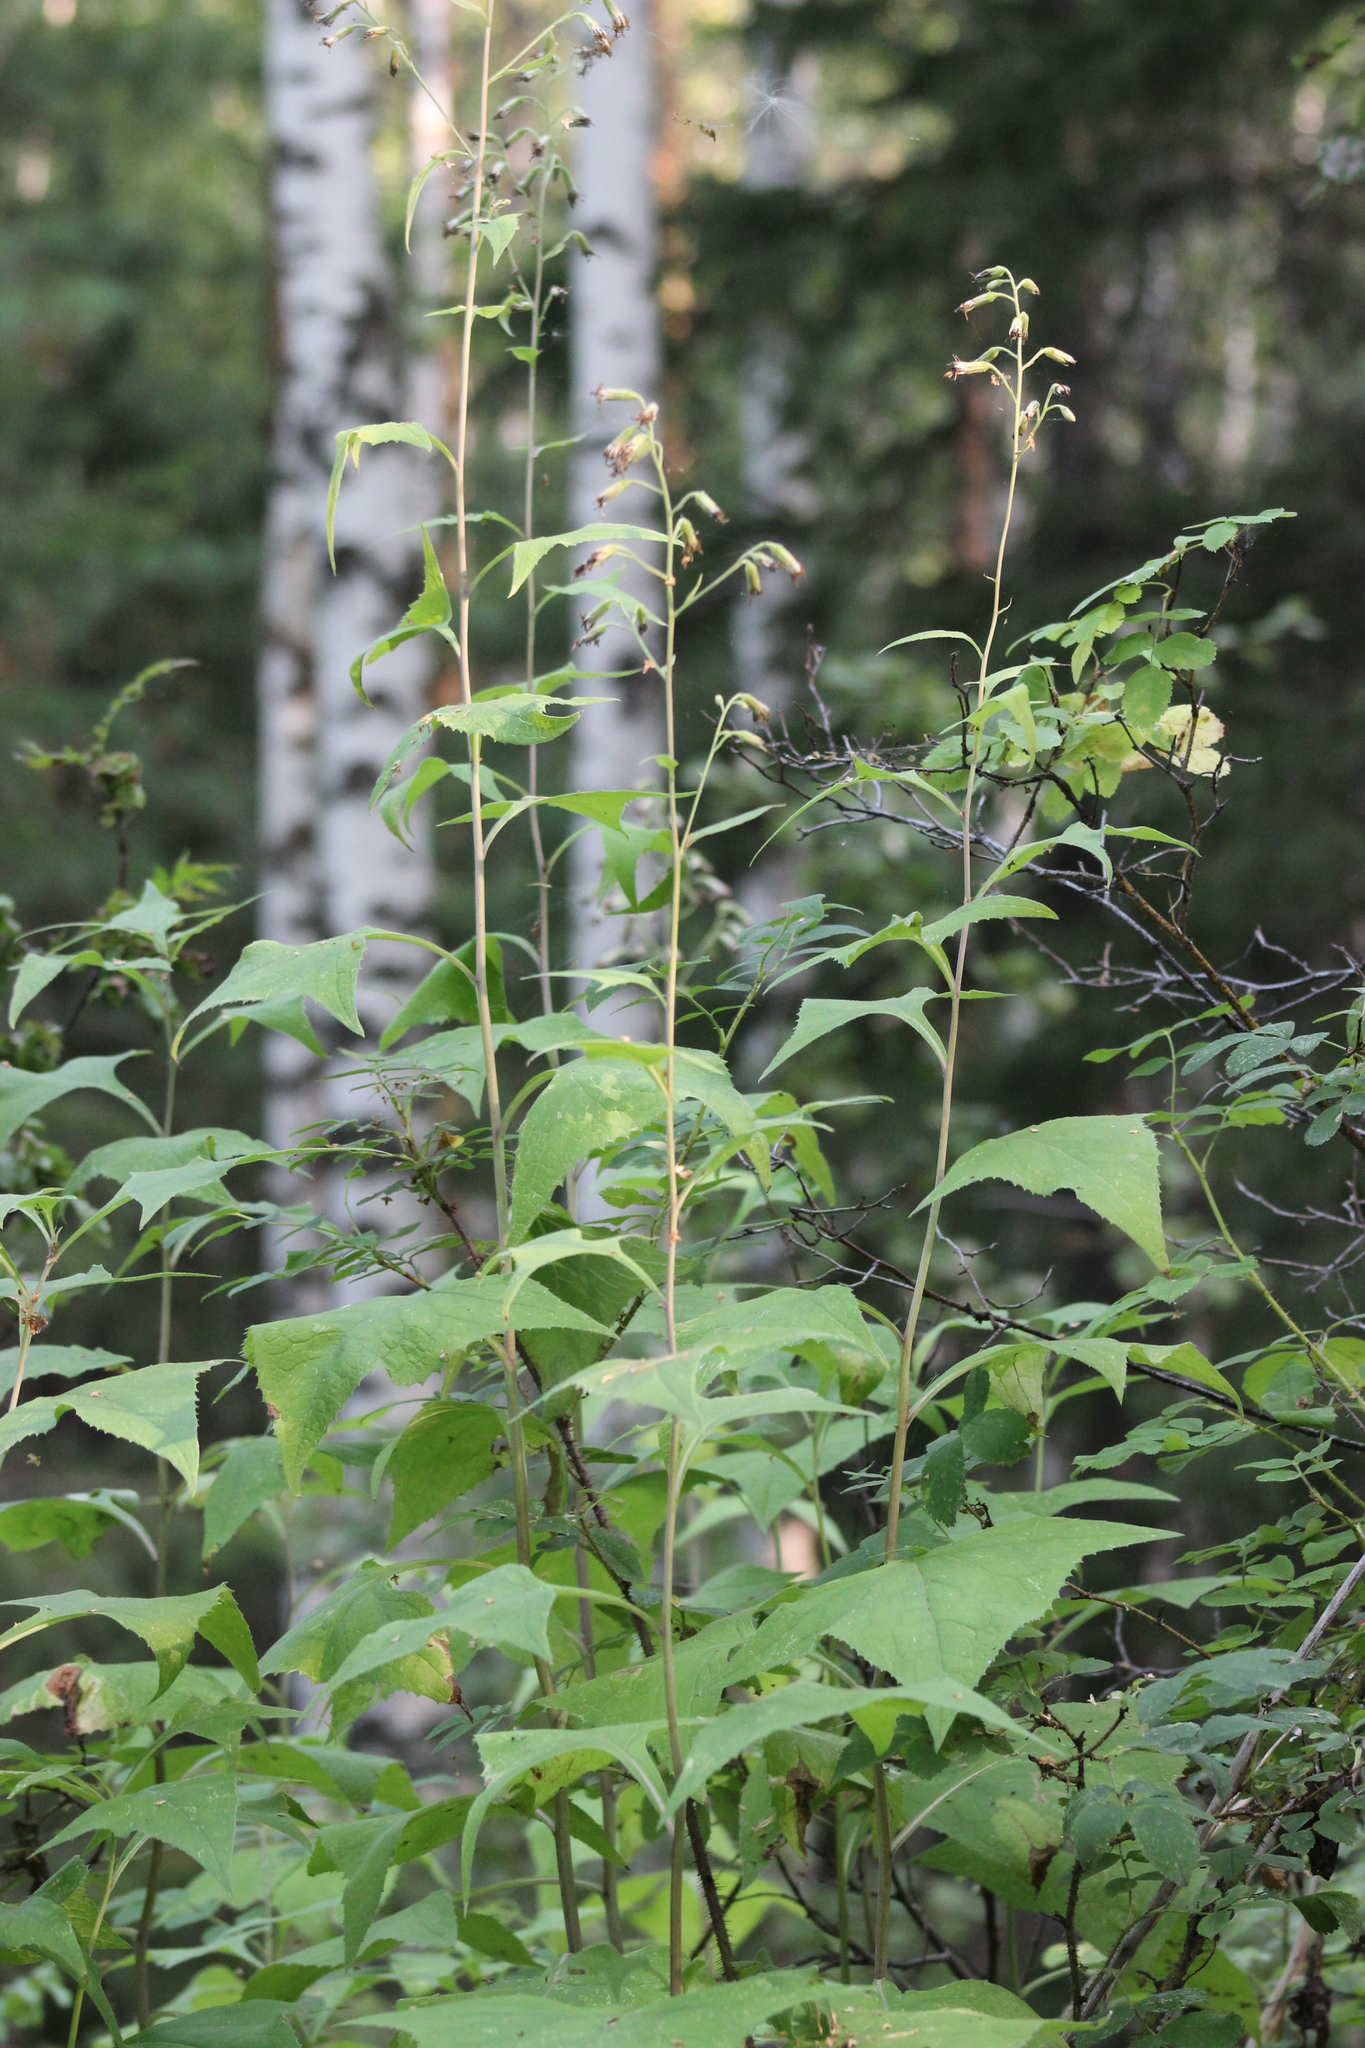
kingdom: Plantae
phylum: Tracheophyta
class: Magnoliopsida
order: Asterales
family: Asteraceae
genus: Parasenecio
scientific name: Parasenecio hastatus
